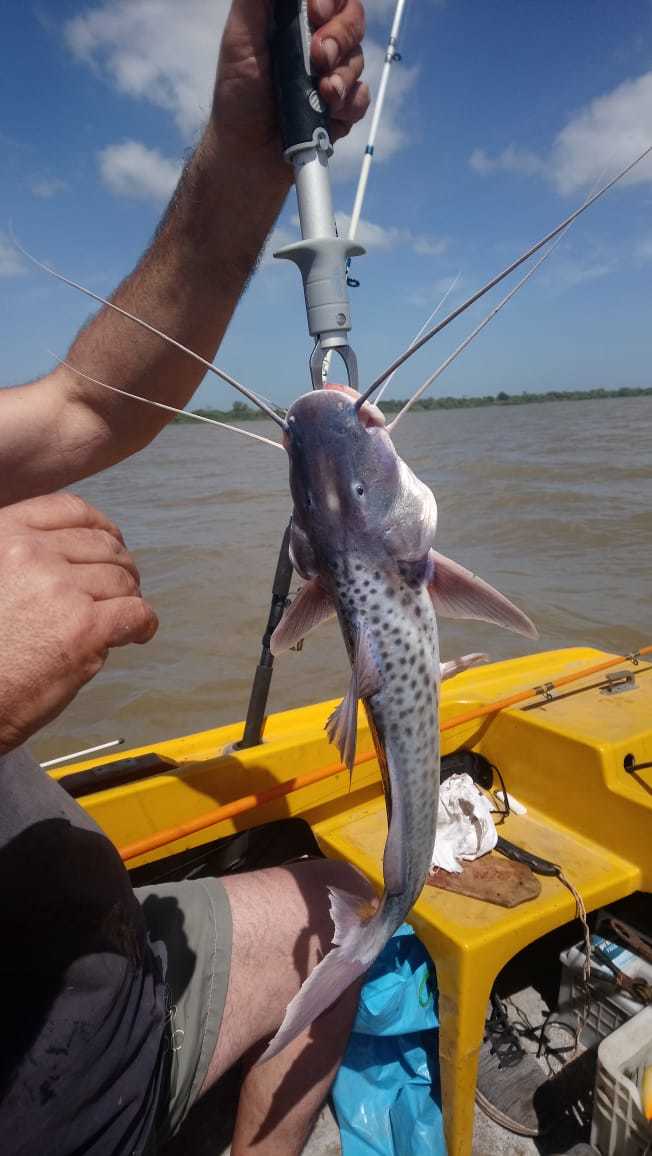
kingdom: Animalia
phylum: Chordata
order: Siluriformes
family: Pimelodidae
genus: Luciopimelodus
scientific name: Luciopimelodus pati
